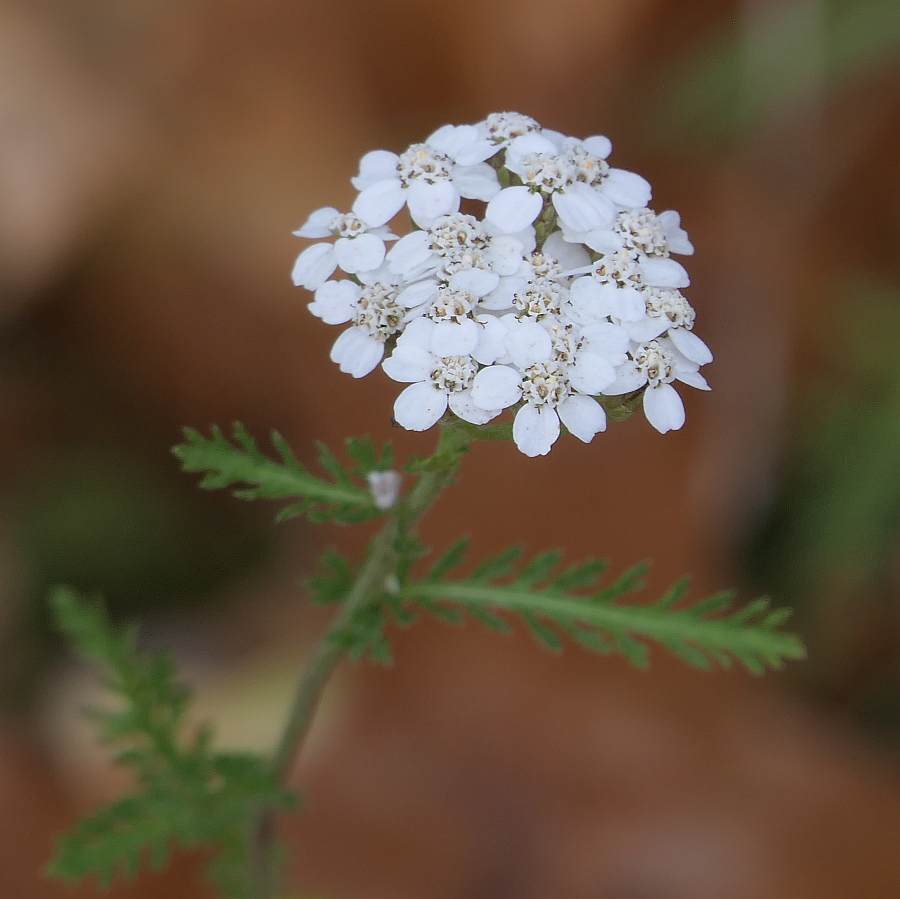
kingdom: Plantae
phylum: Tracheophyta
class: Magnoliopsida
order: Asterales
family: Asteraceae
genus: Achillea
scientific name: Achillea millefolium
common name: Yarrow
